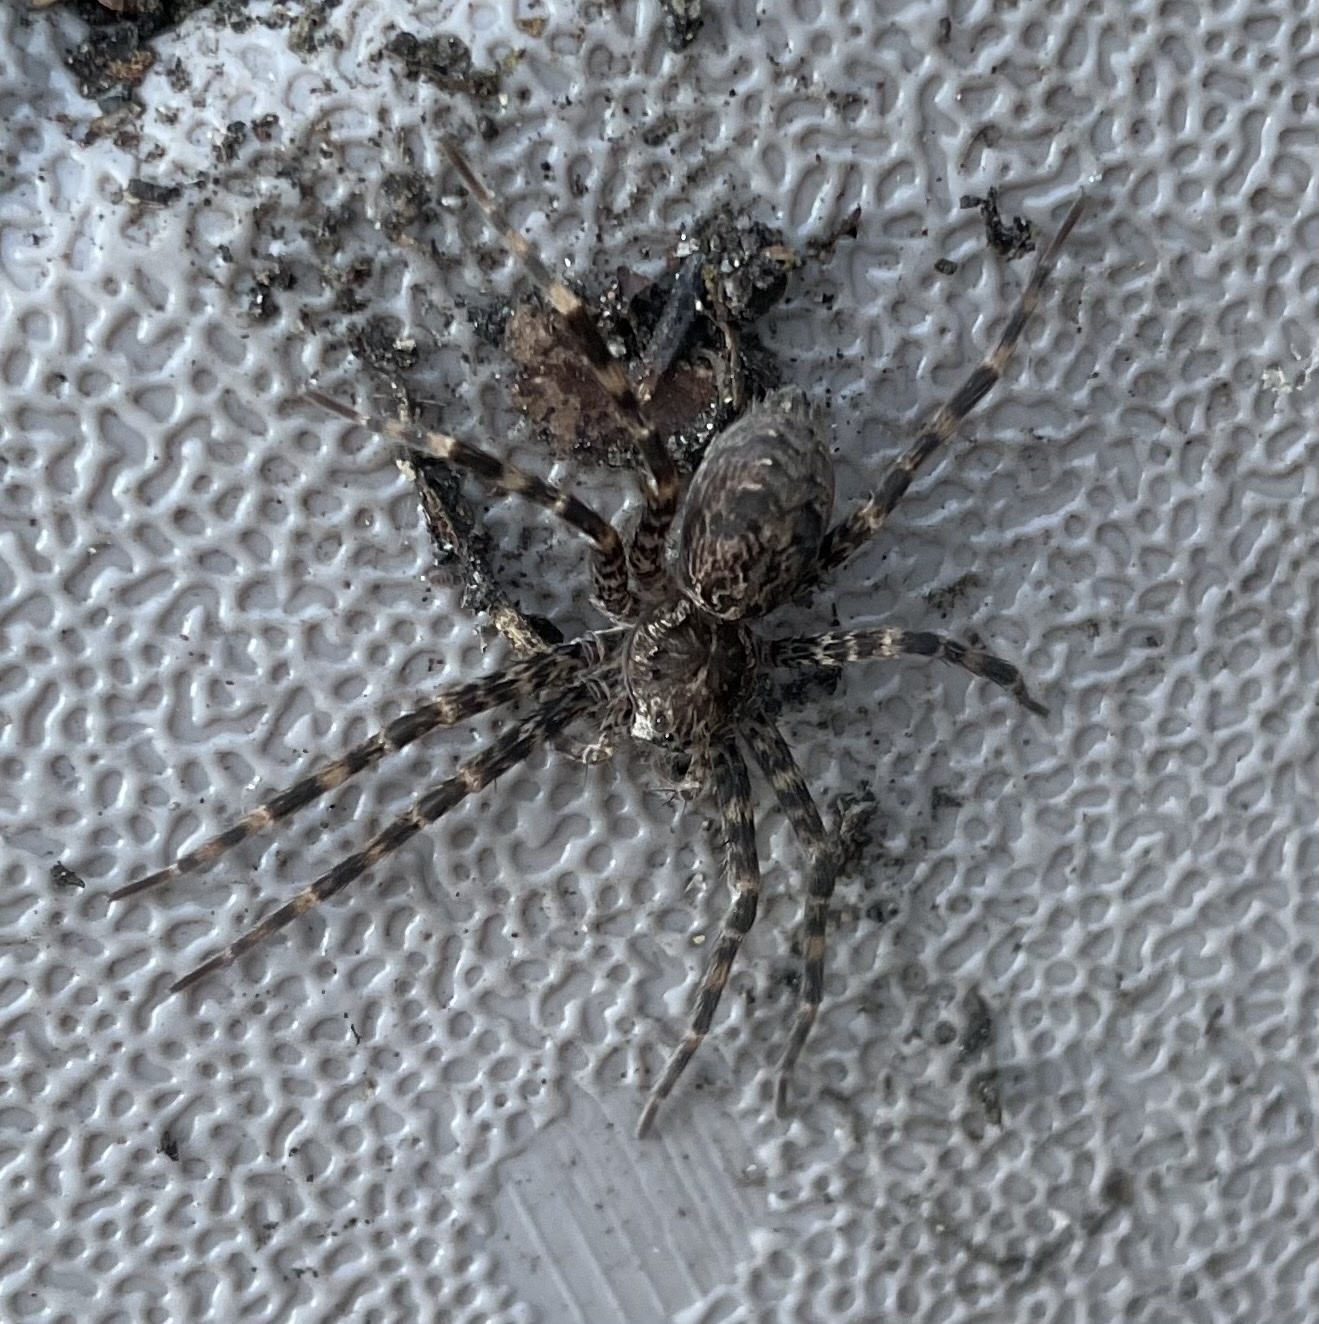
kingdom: Animalia
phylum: Arthropoda
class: Arachnida
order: Araneae
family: Pisauridae
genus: Dolomedes
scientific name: Dolomedes tenebrosus
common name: Dark fishing spider
